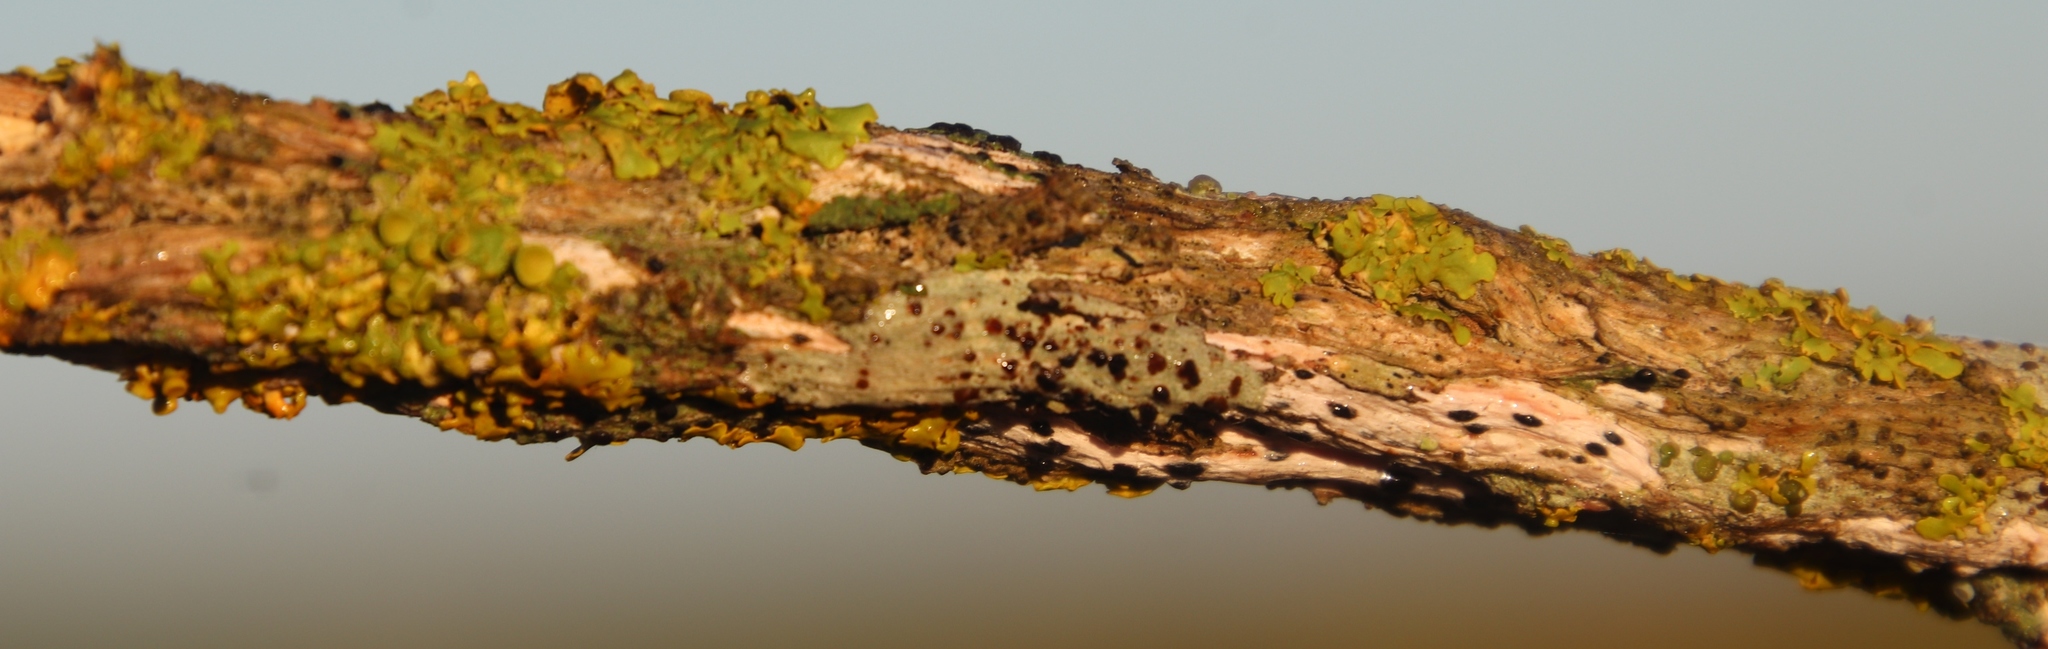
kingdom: Fungi
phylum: Ascomycota
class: Lecanoromycetes
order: Teloschistales
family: Teloschistaceae
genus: Dufourea
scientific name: Dufourea turbinata
